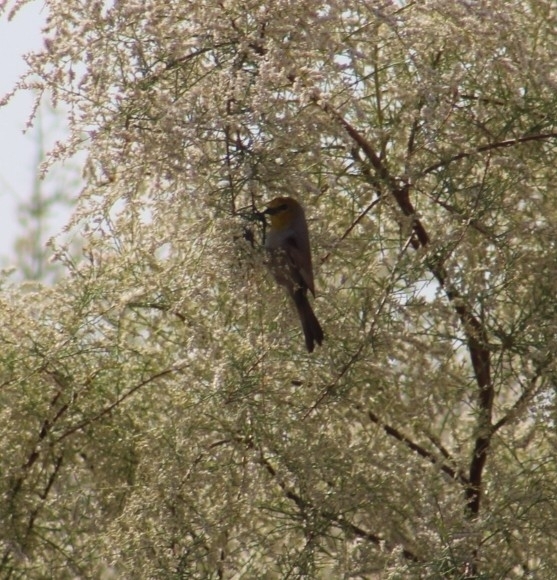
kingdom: Animalia
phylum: Chordata
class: Aves
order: Passeriformes
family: Remizidae
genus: Auriparus
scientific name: Auriparus flaviceps
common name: Verdin
